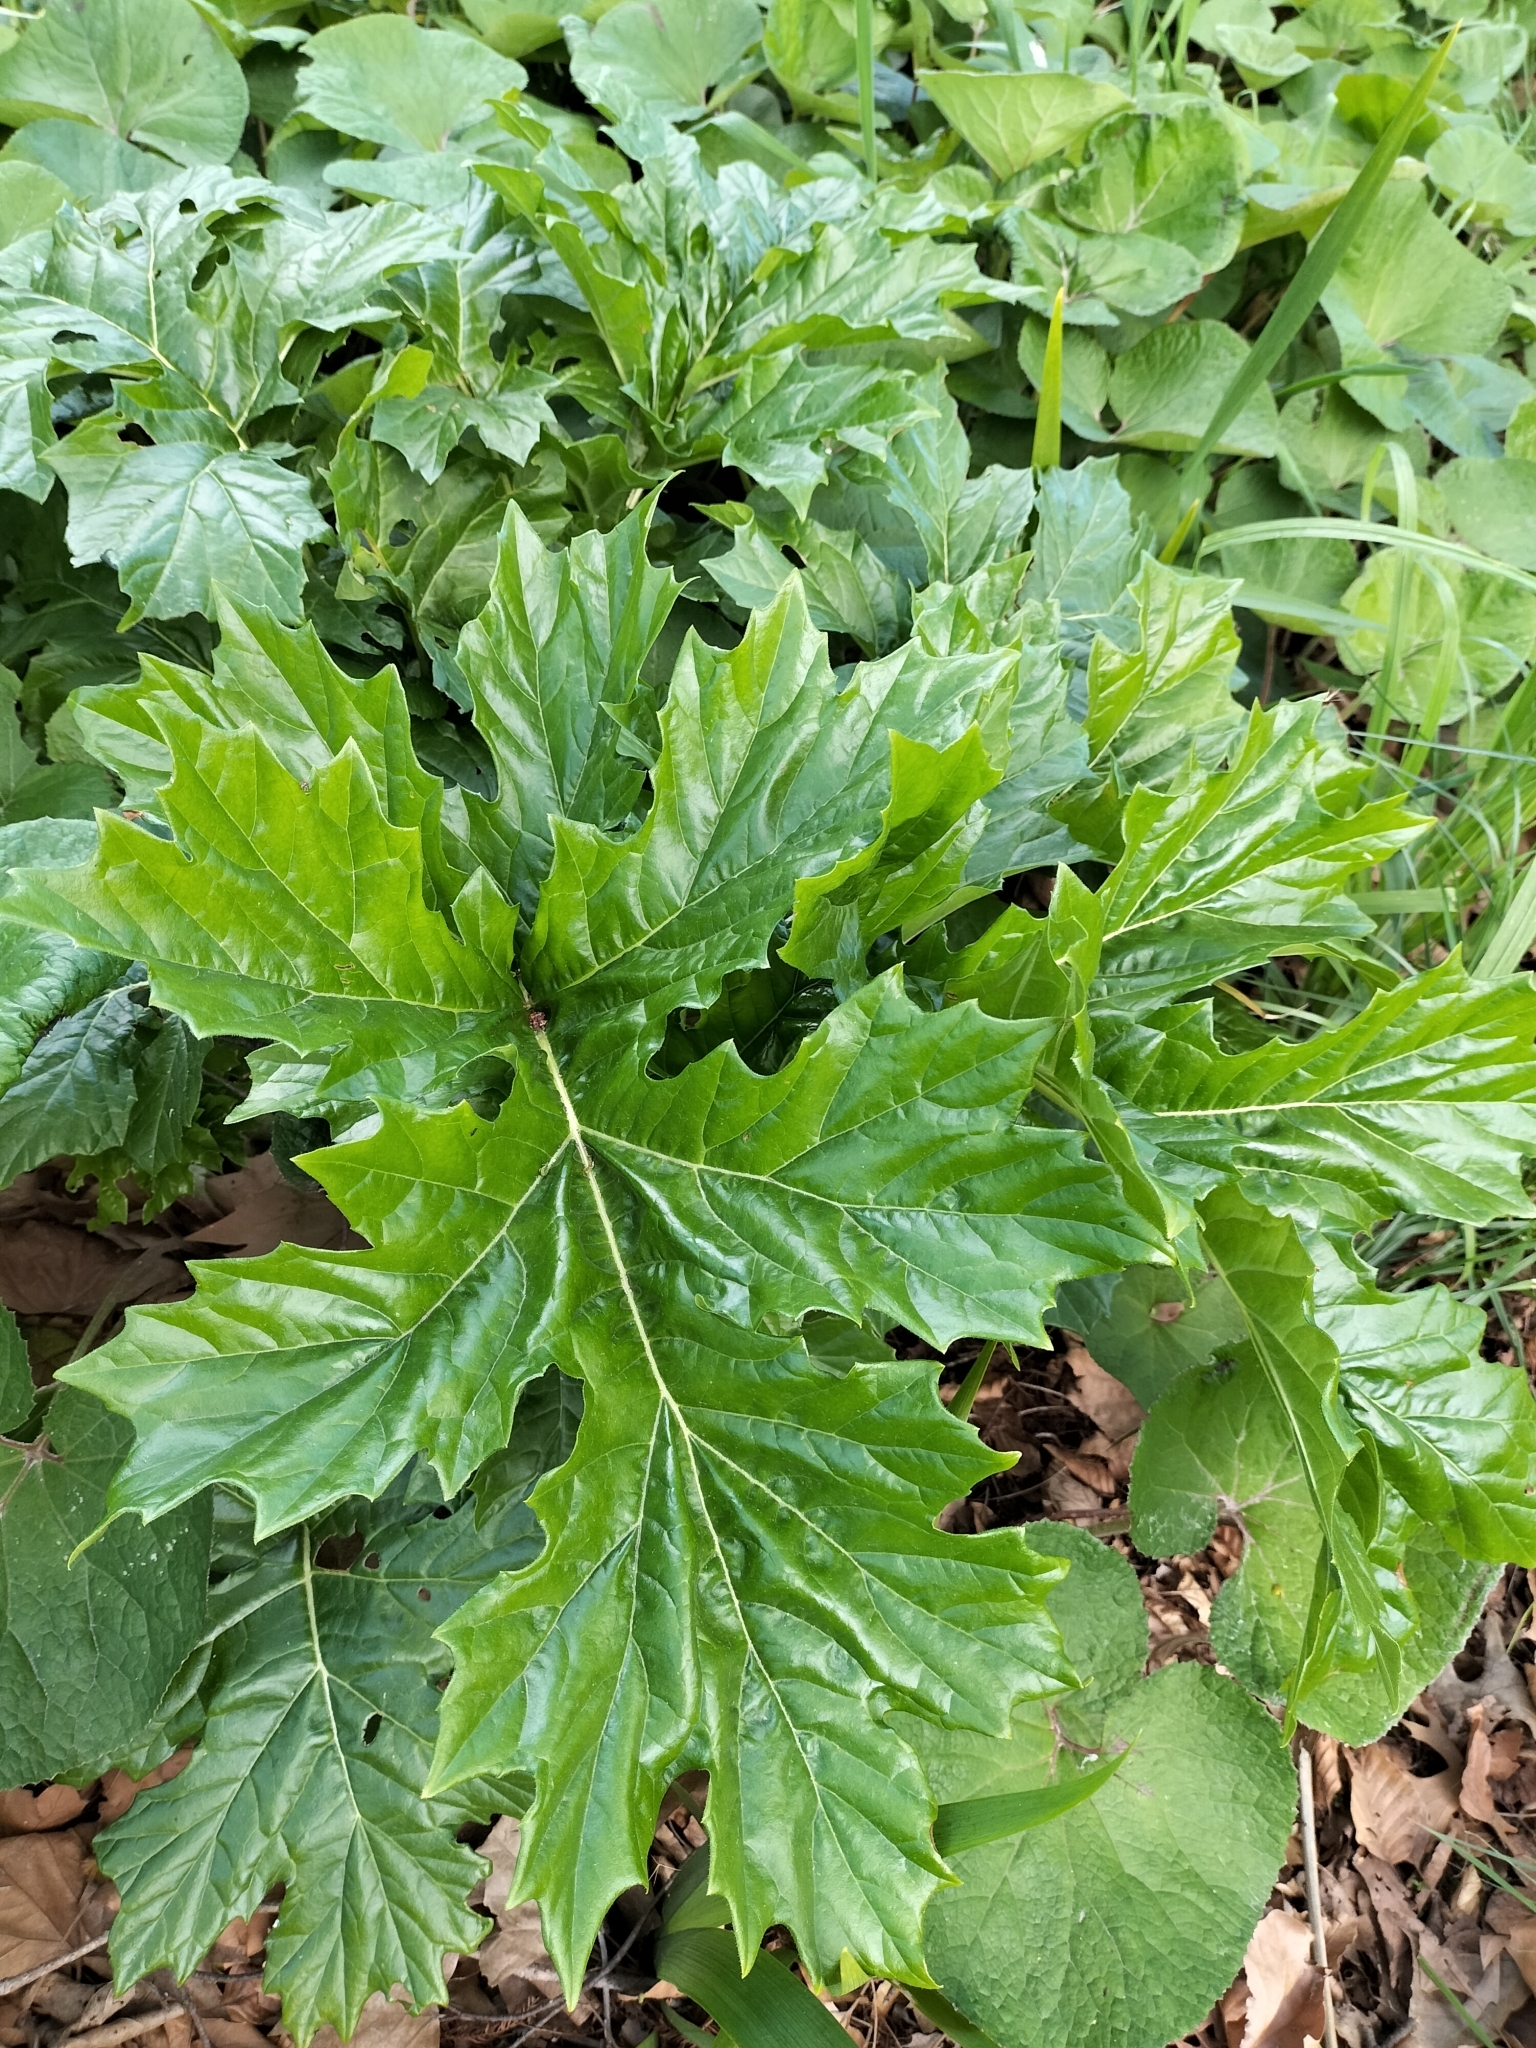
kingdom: Plantae
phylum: Tracheophyta
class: Magnoliopsida
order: Lamiales
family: Acanthaceae
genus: Acanthus
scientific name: Acanthus mollis
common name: Bear's-breech
